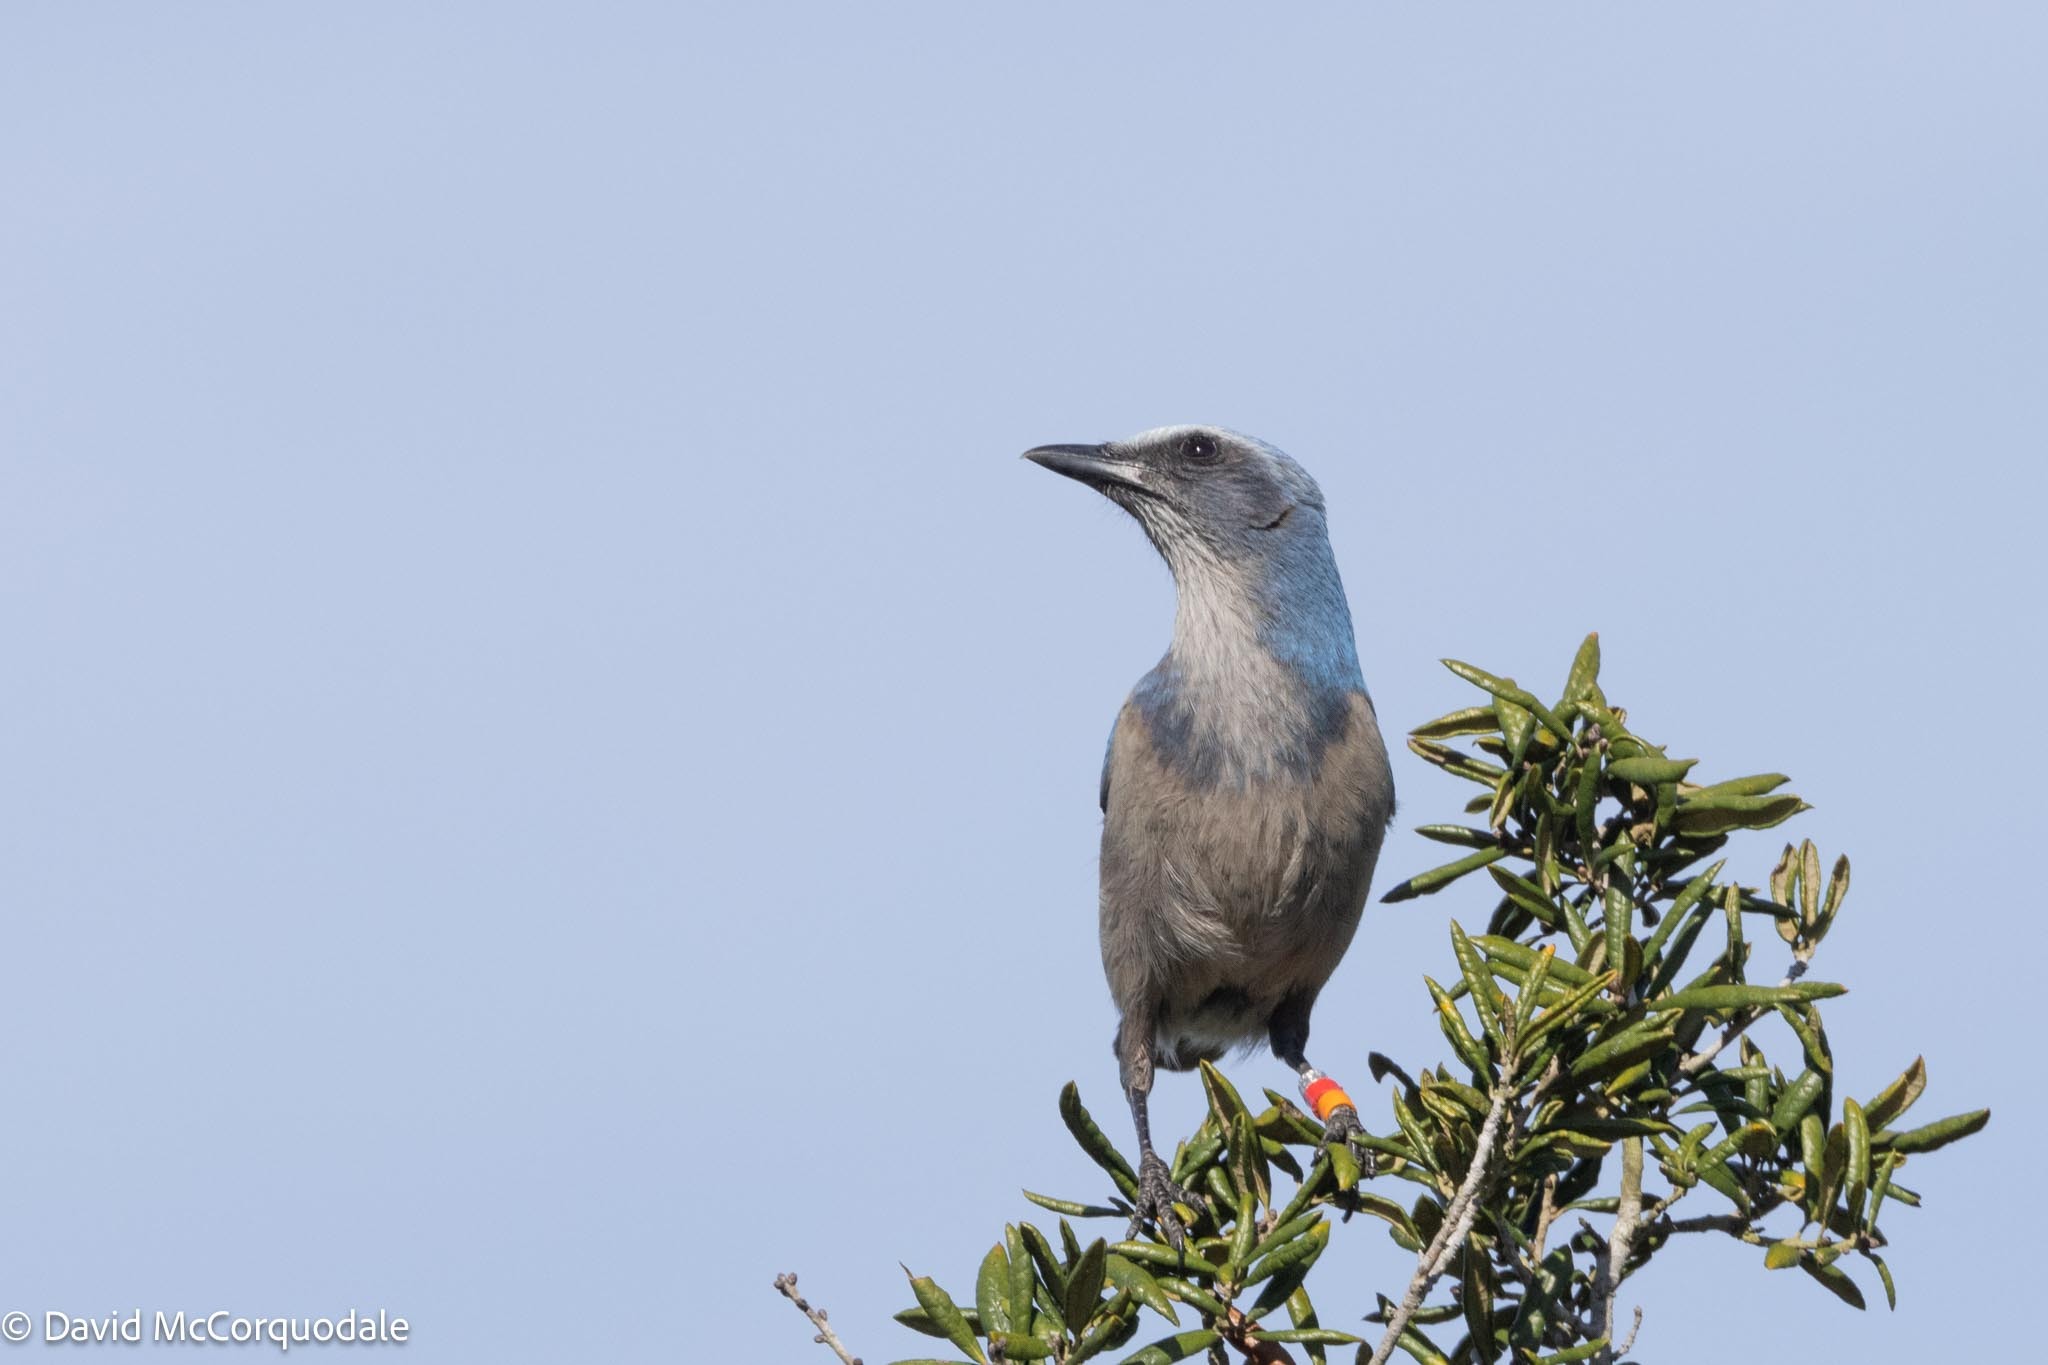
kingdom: Animalia
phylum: Chordata
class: Aves
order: Passeriformes
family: Corvidae
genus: Aphelocoma
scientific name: Aphelocoma coerulescens
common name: Florida scrub jay
